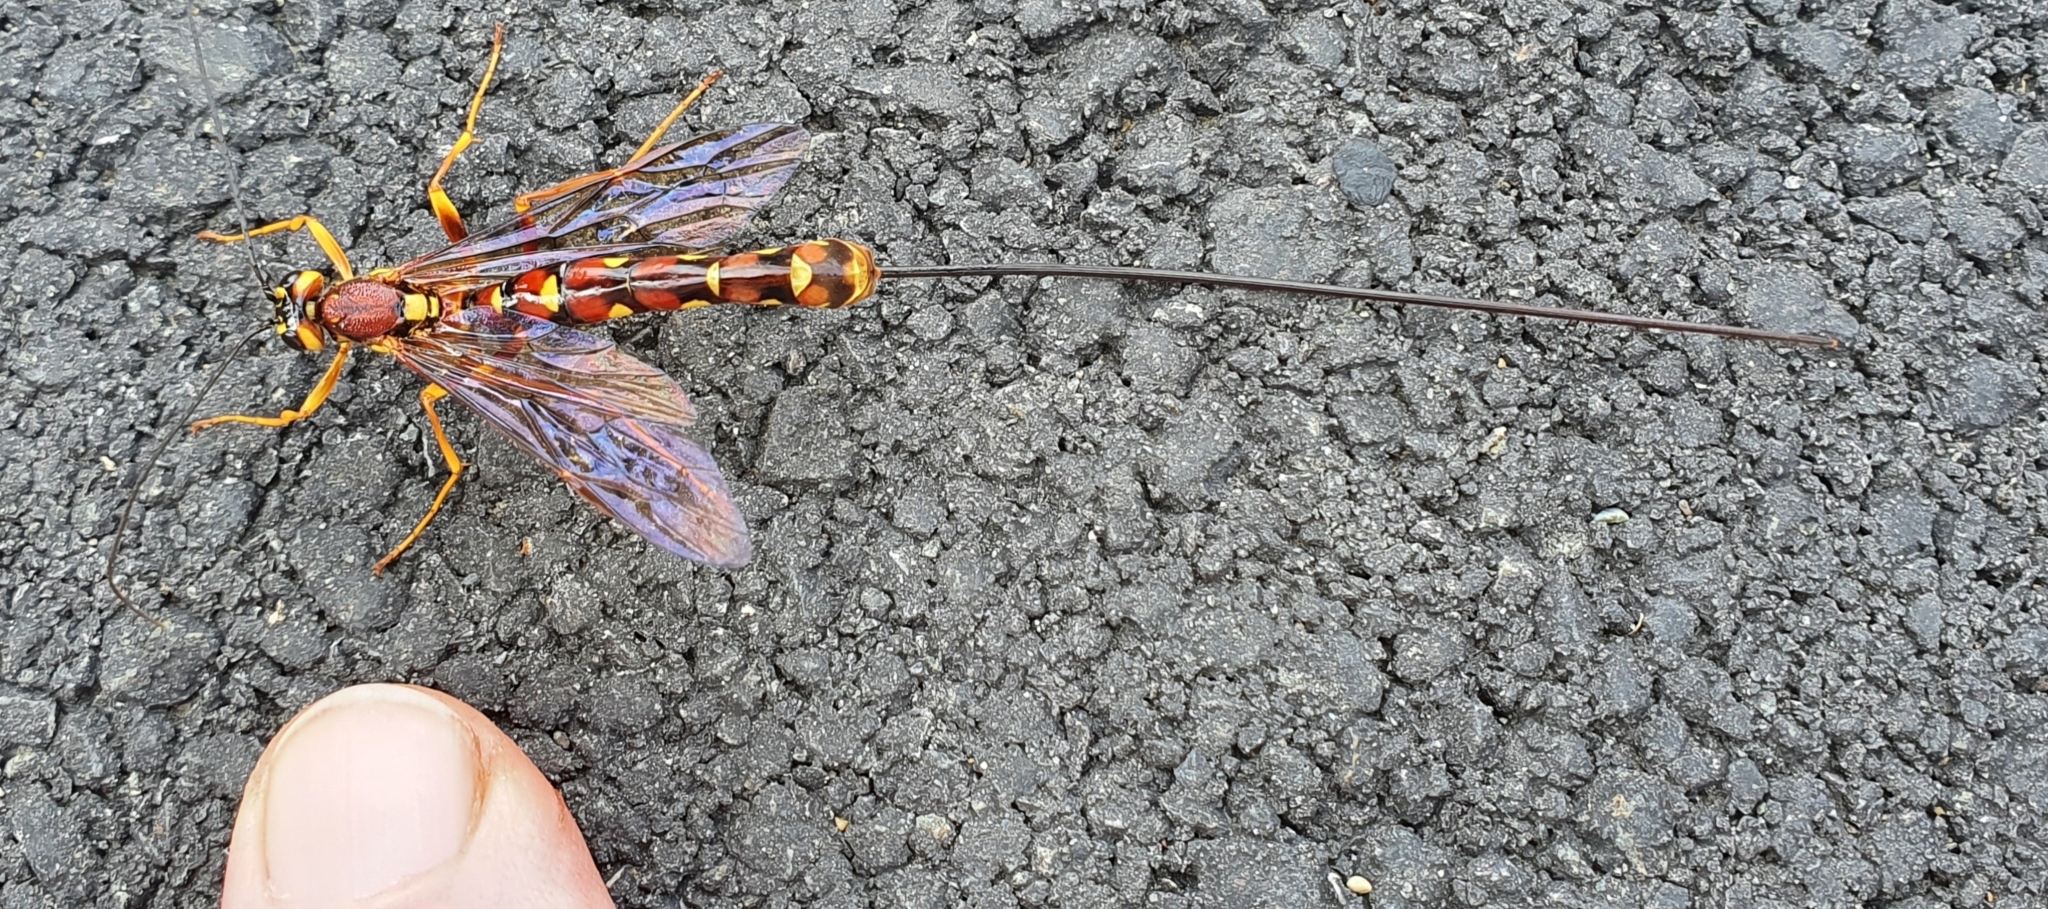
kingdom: Animalia
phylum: Arthropoda
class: Insecta
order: Hymenoptera
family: Ichneumonidae
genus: Megarhyssa
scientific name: Megarhyssa nortoni
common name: Norton's giant ichneumonid wasp
